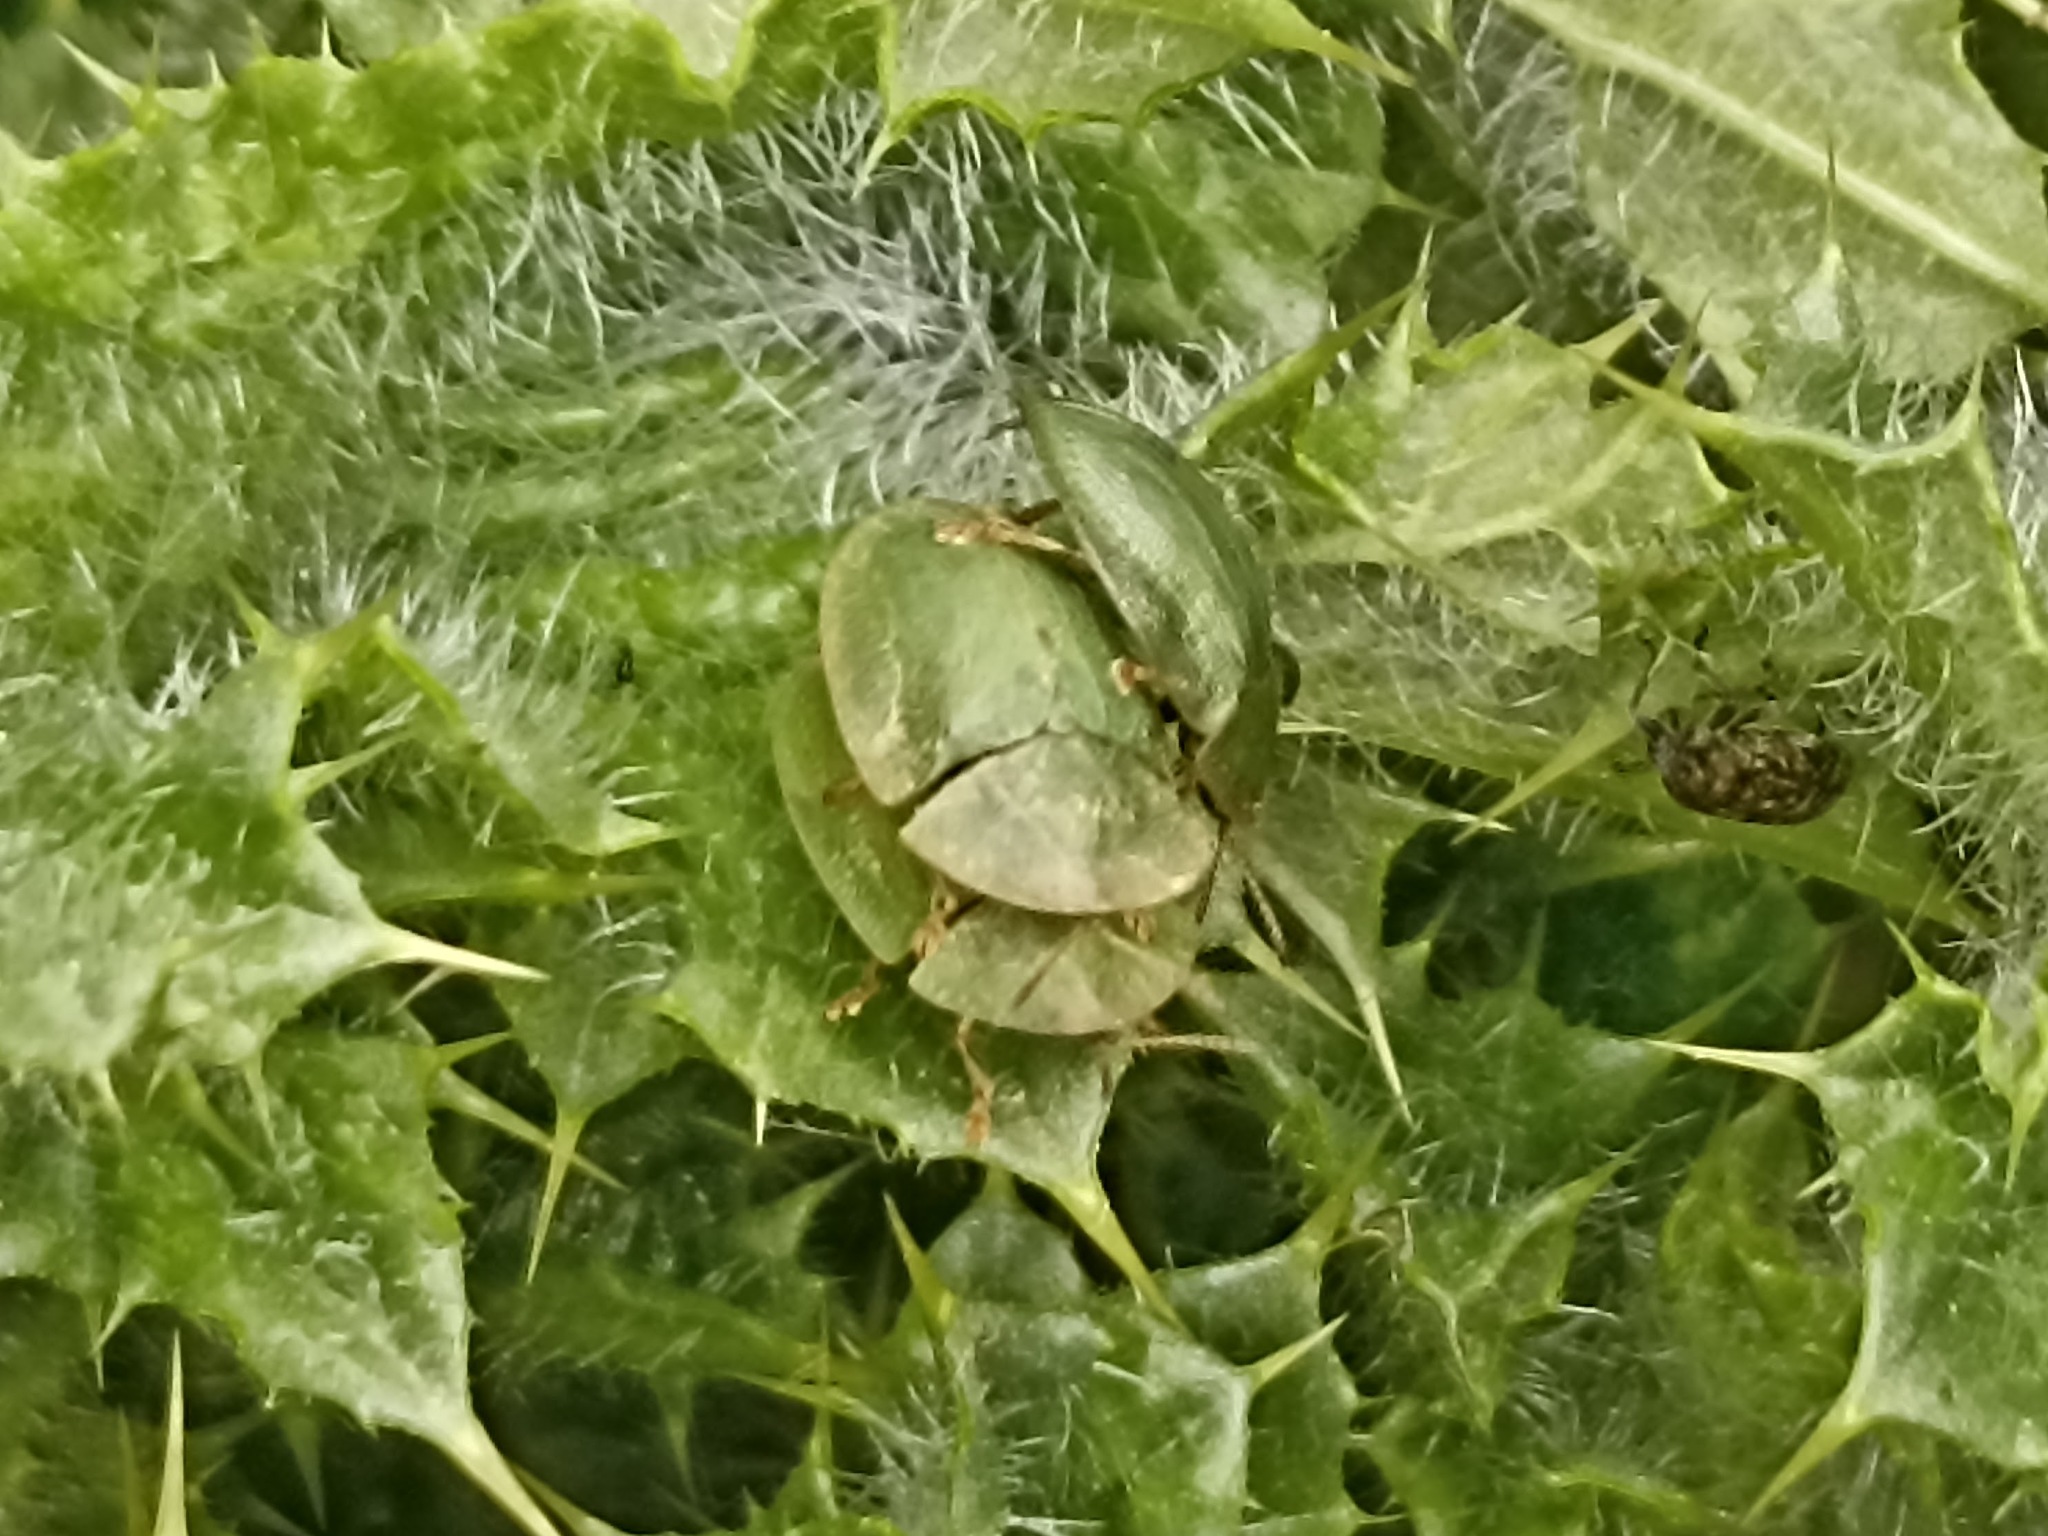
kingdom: Animalia
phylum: Arthropoda
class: Insecta
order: Coleoptera
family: Chrysomelidae
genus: Cassida
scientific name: Cassida deflorata
